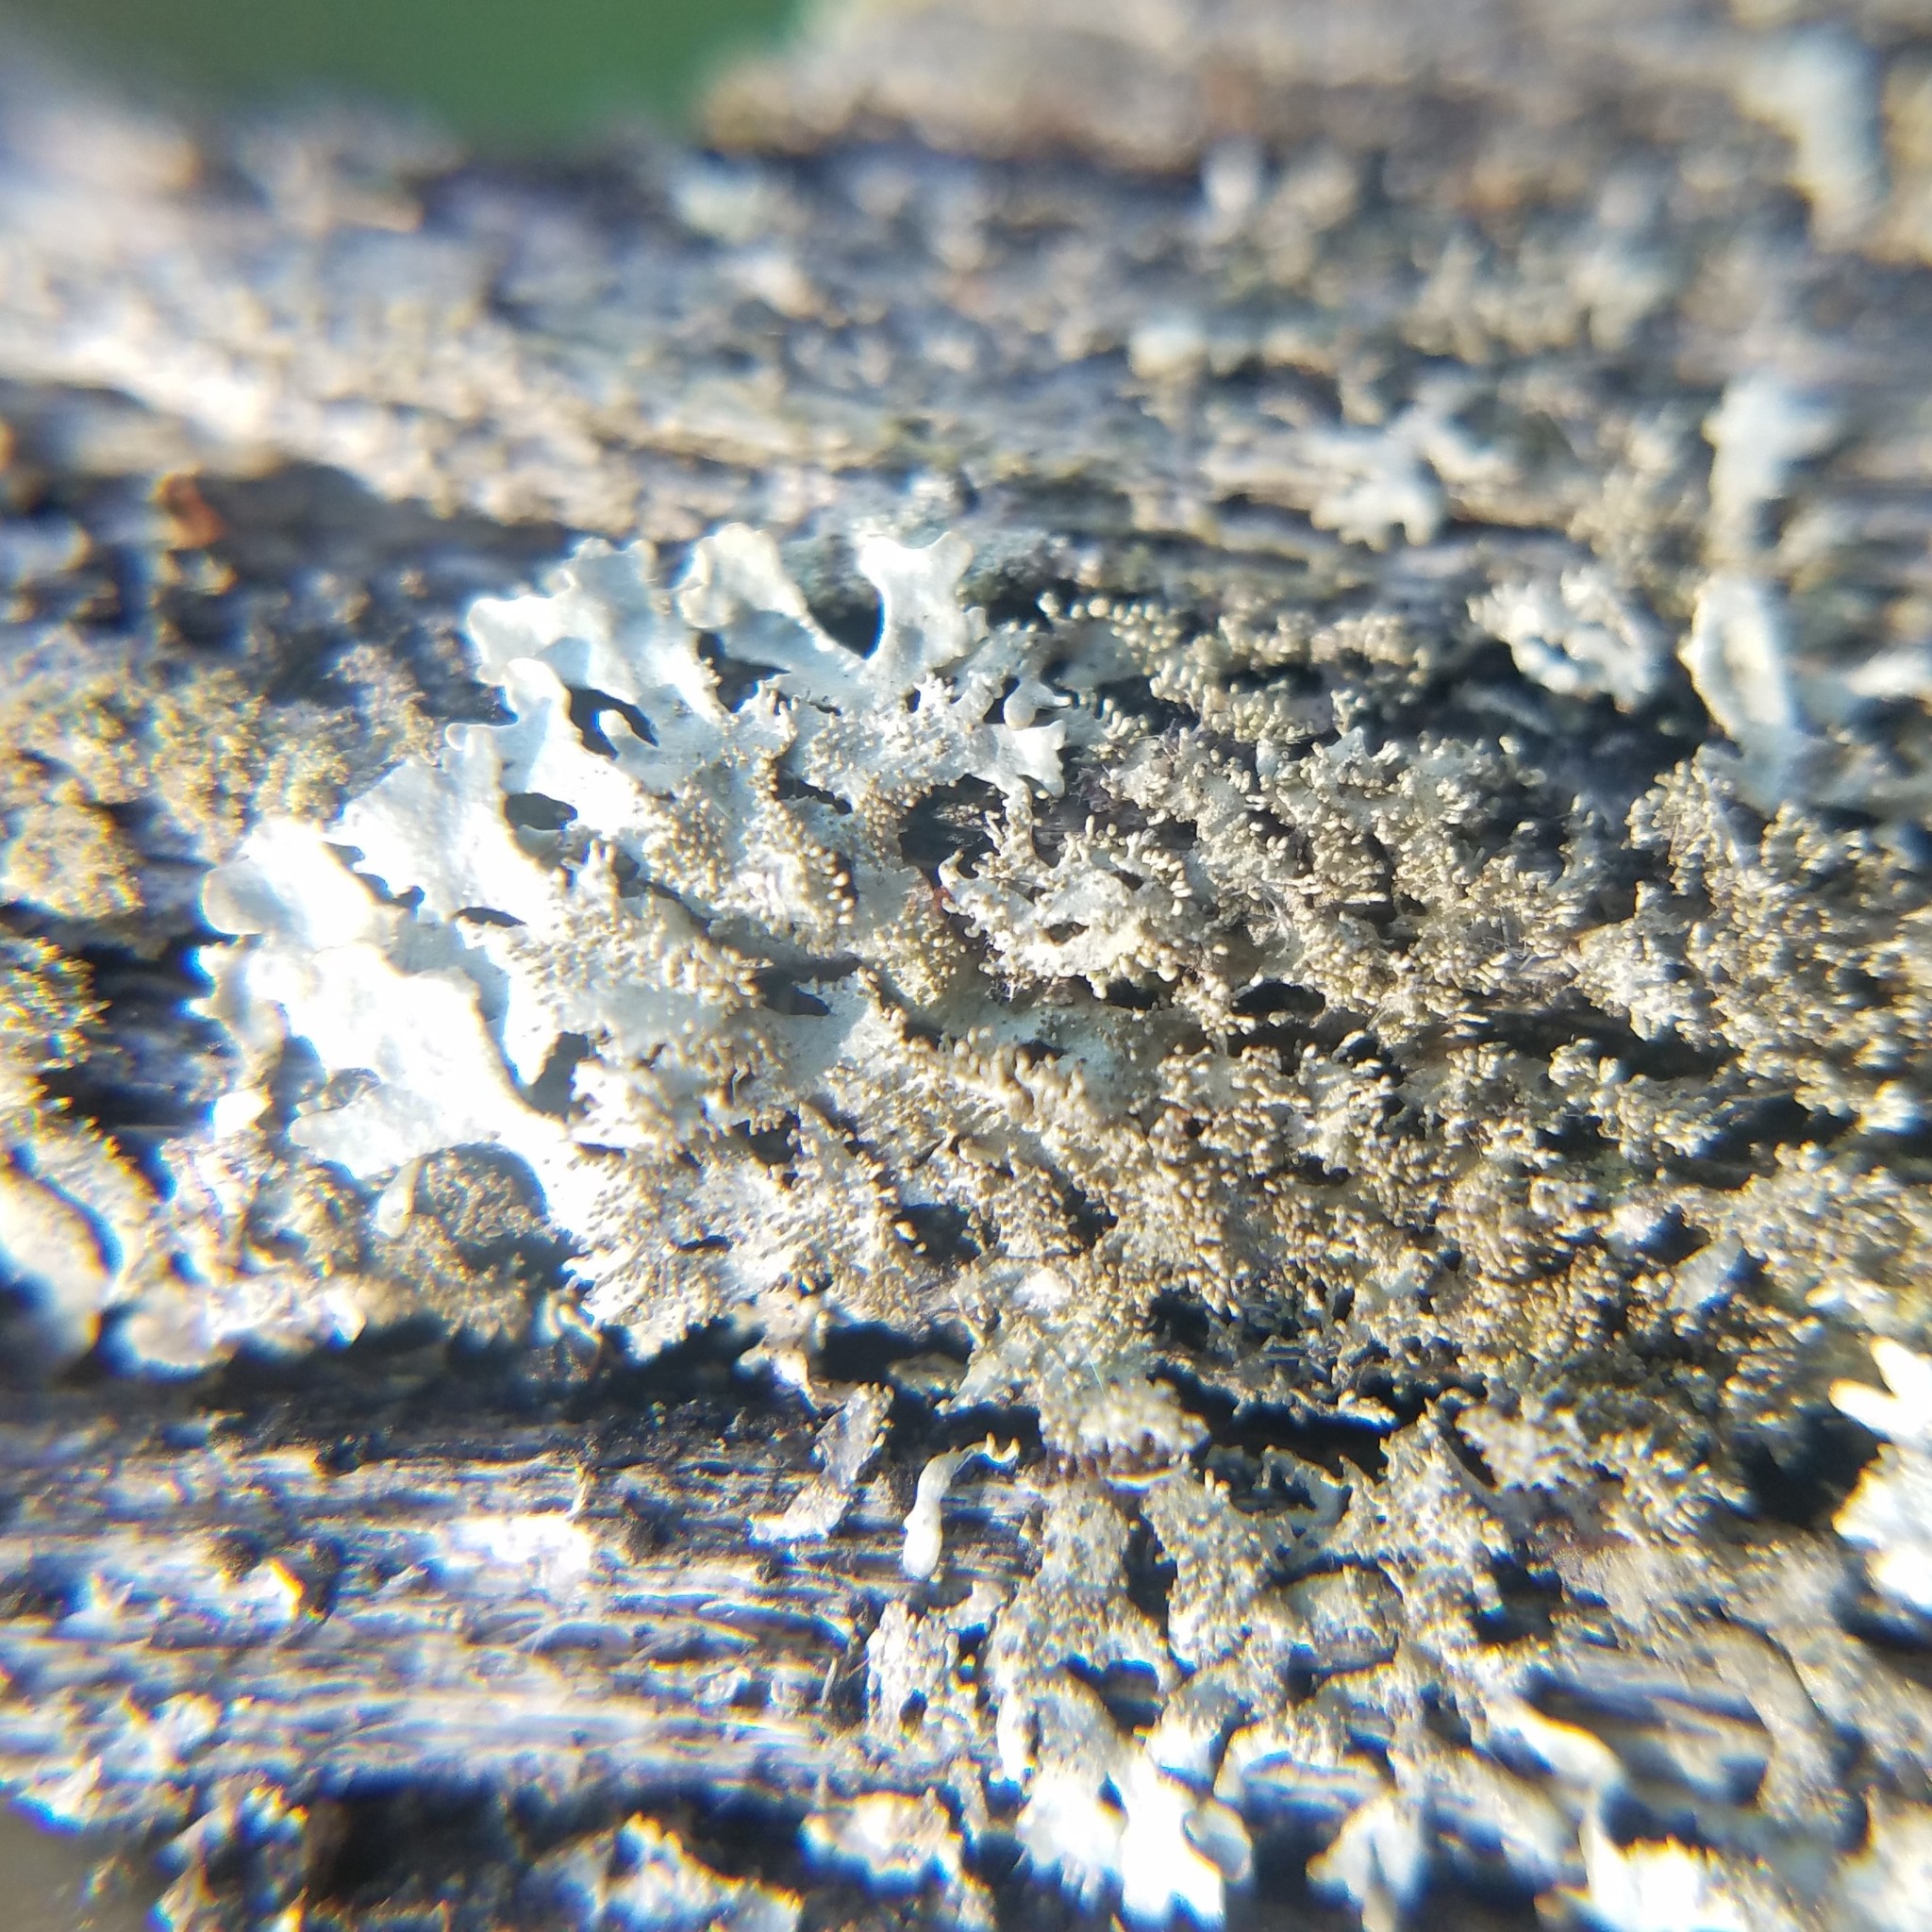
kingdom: Fungi
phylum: Ascomycota
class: Lecanoromycetes
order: Lecanorales
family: Parmeliaceae
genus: Imshaugia
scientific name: Imshaugia aleurites
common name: Salted starburst lichen
